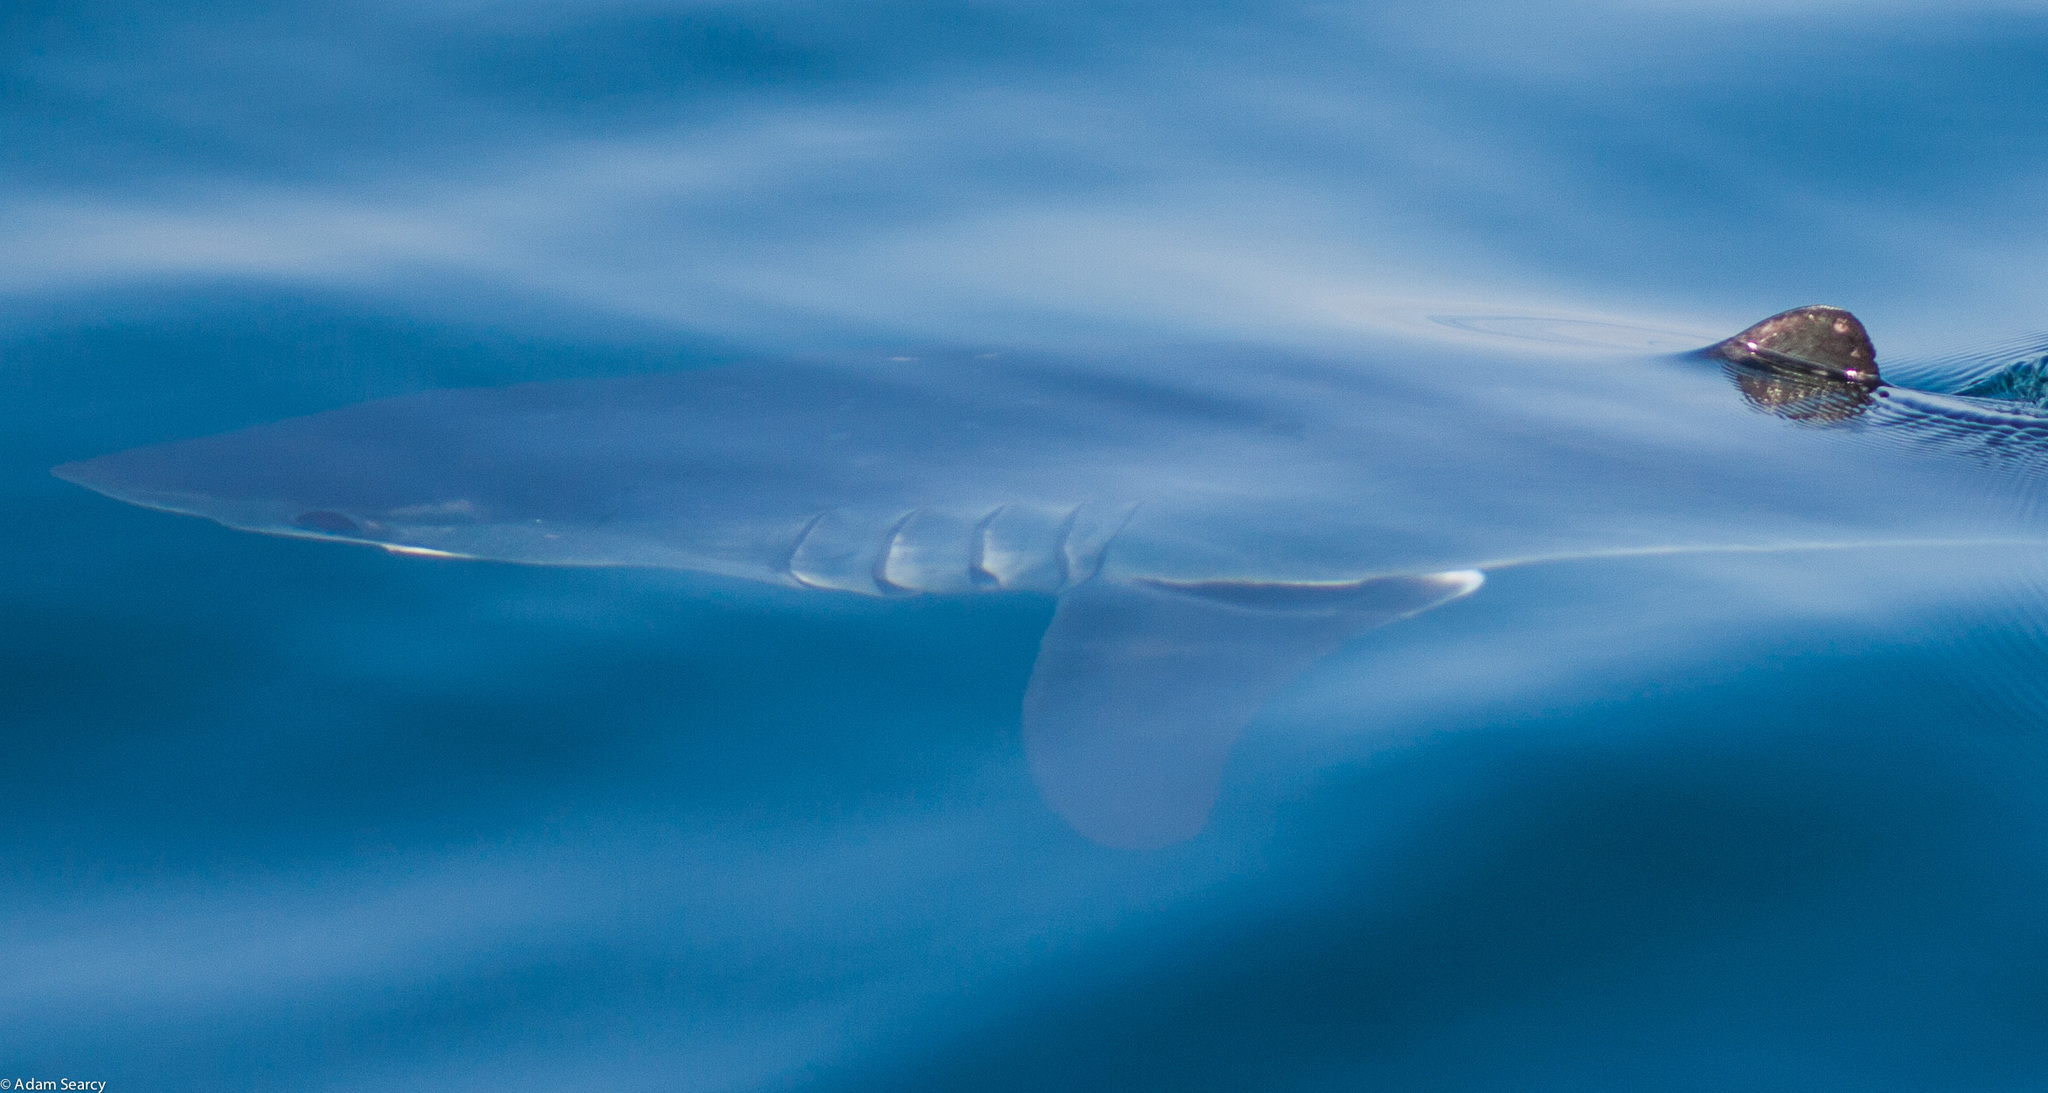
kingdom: Animalia
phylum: Chordata
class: Elasmobranchii
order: Lamniformes
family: Lamnidae
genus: Isurus
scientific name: Isurus oxyrinchus
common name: Shortfin mako
